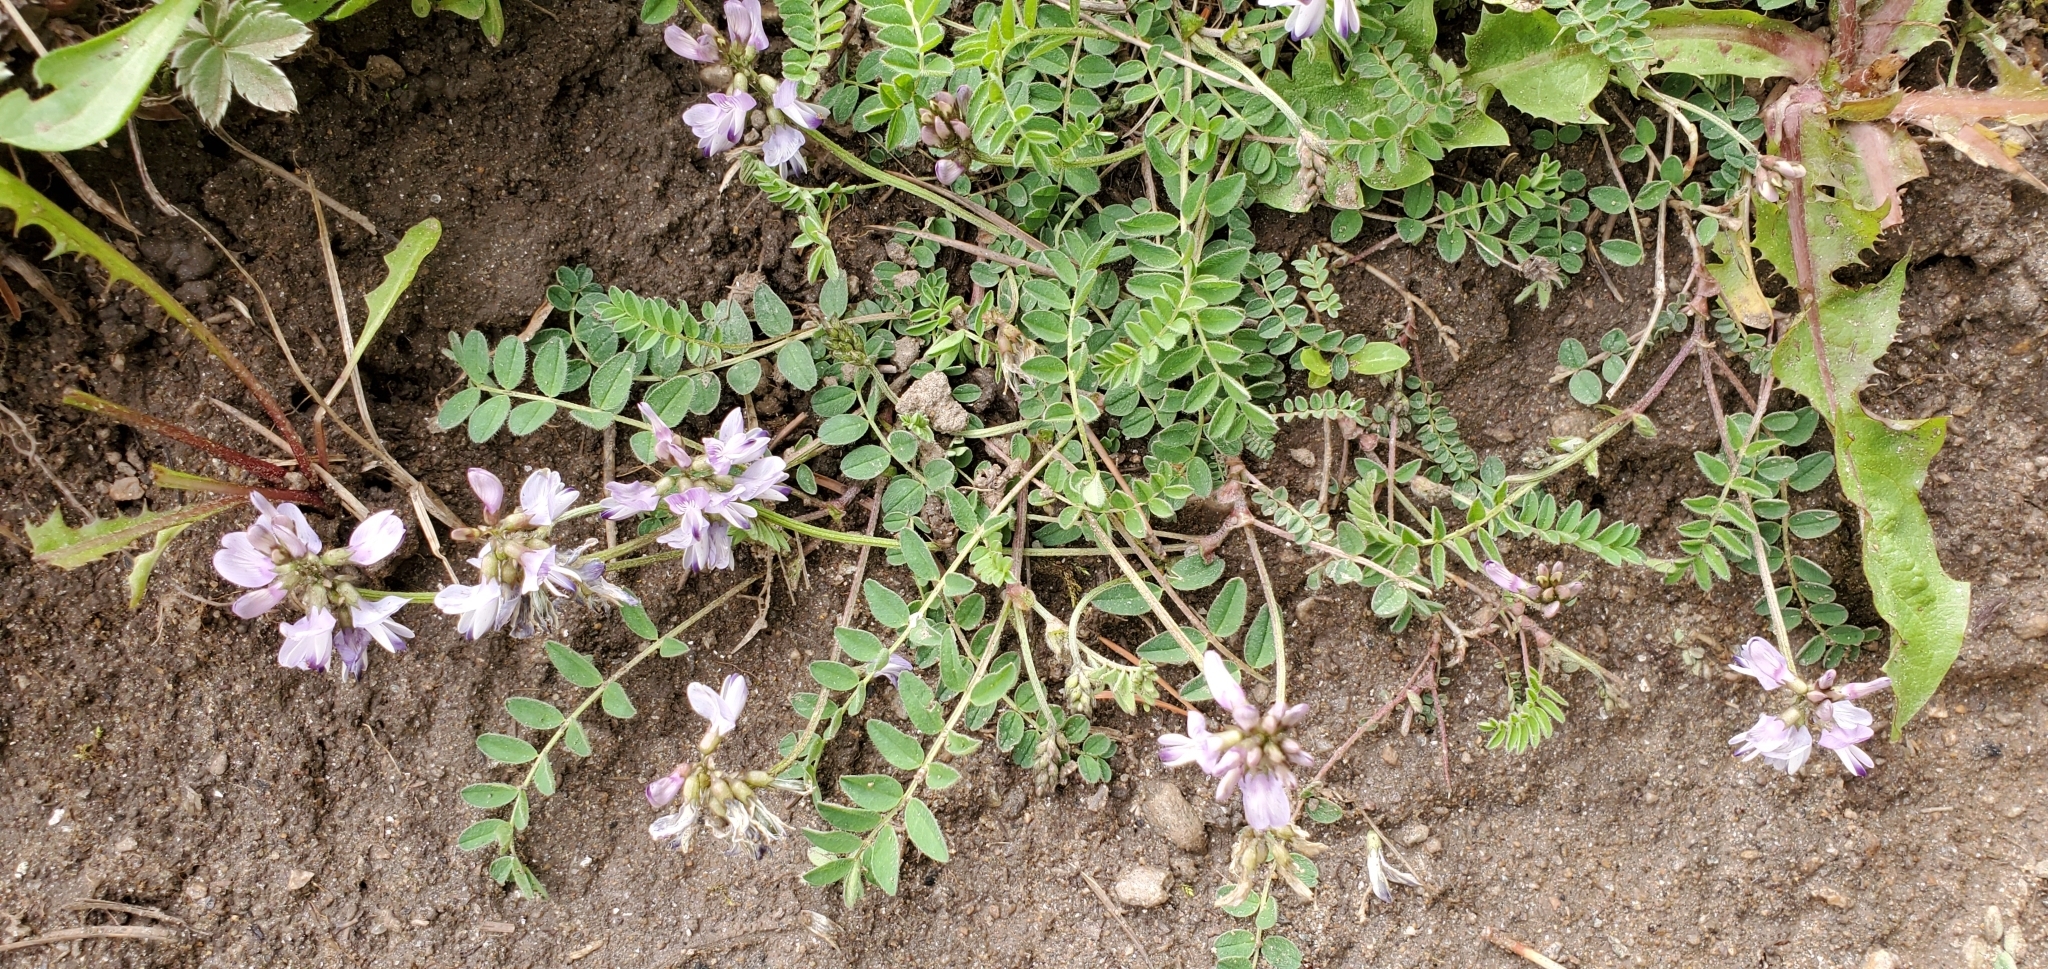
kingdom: Plantae
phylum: Tracheophyta
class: Magnoliopsida
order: Fabales
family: Fabaceae
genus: Astragalus
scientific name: Astragalus alpinus
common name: Alpine milk-vetch
